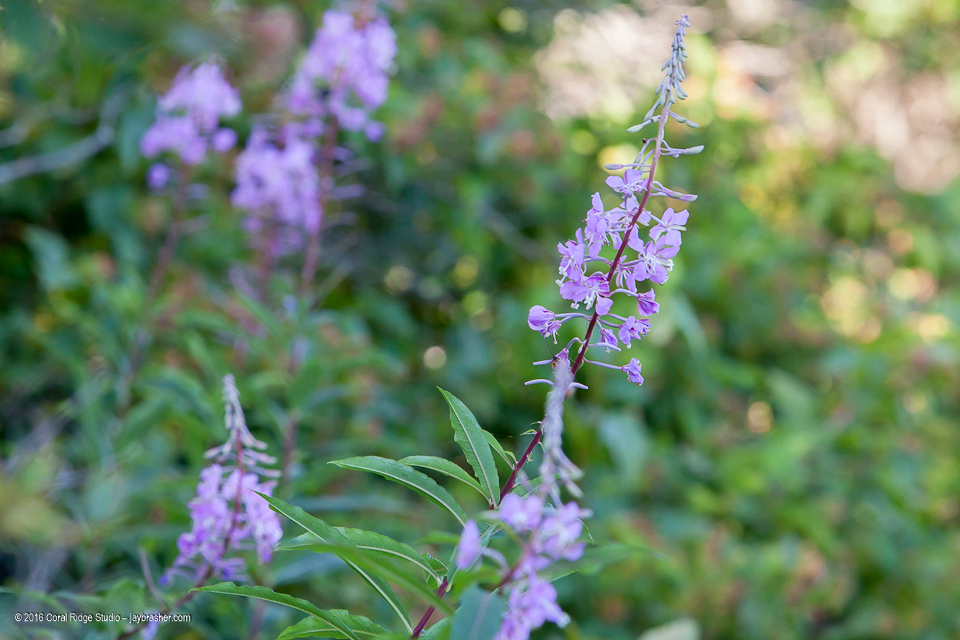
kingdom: Plantae
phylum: Tracheophyta
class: Magnoliopsida
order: Myrtales
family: Onagraceae
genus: Chamaenerion
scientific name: Chamaenerion angustifolium
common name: Fireweed
